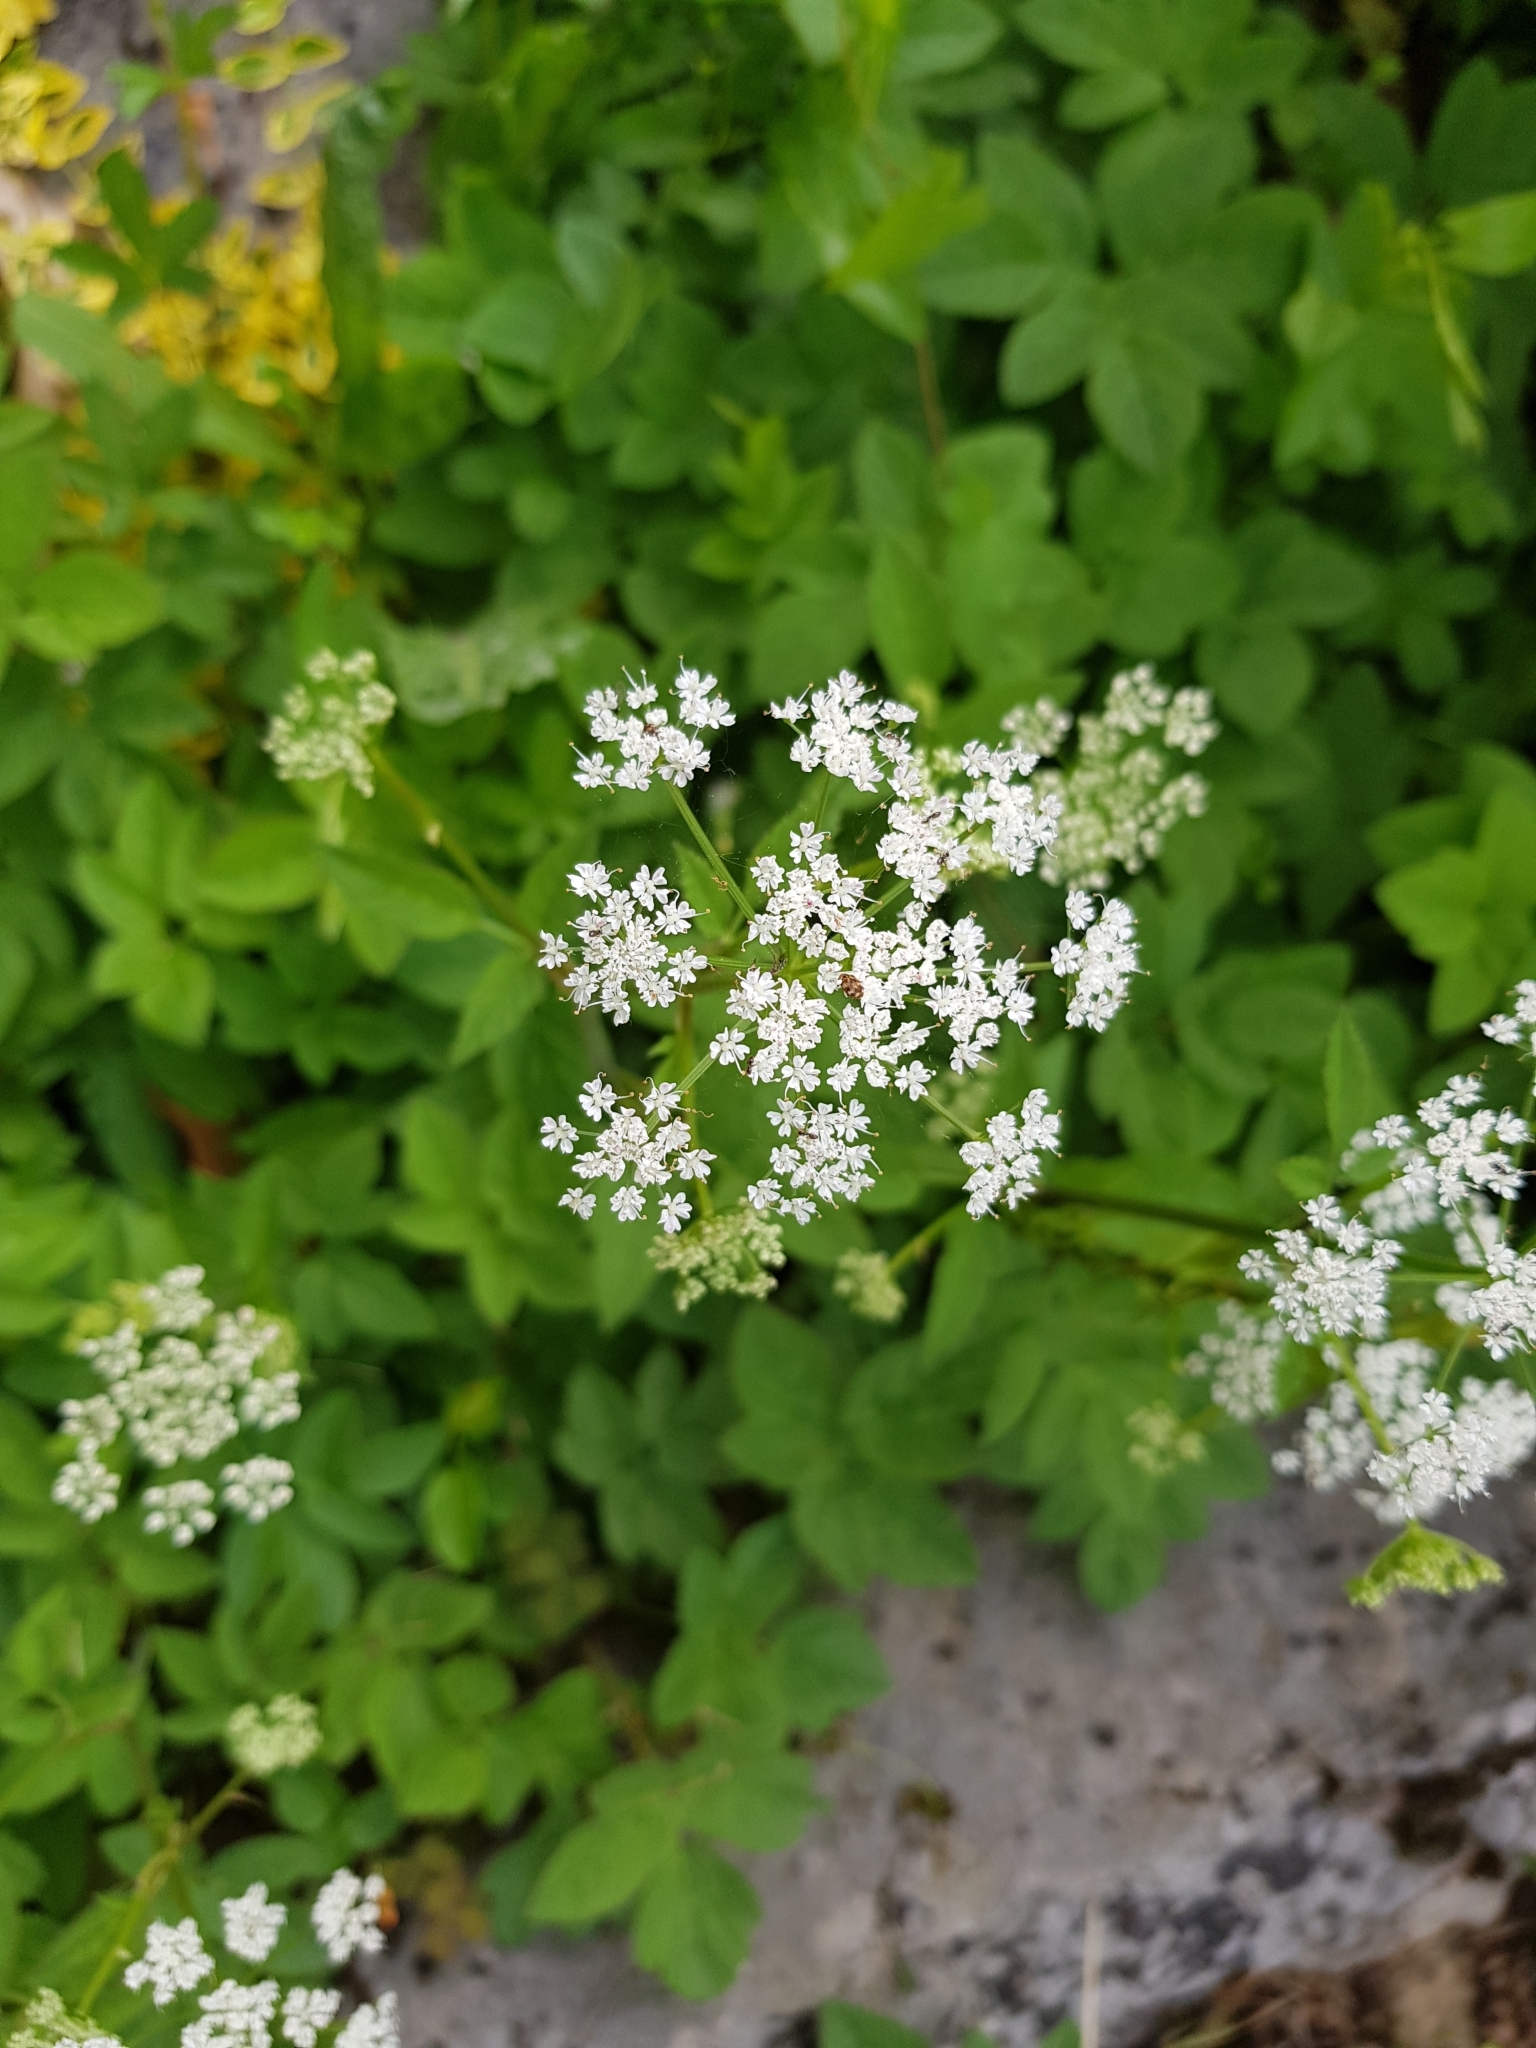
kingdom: Plantae
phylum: Tracheophyta
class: Magnoliopsida
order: Apiales
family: Apiaceae
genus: Aegopodium
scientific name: Aegopodium podagraria
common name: Ground-elder
